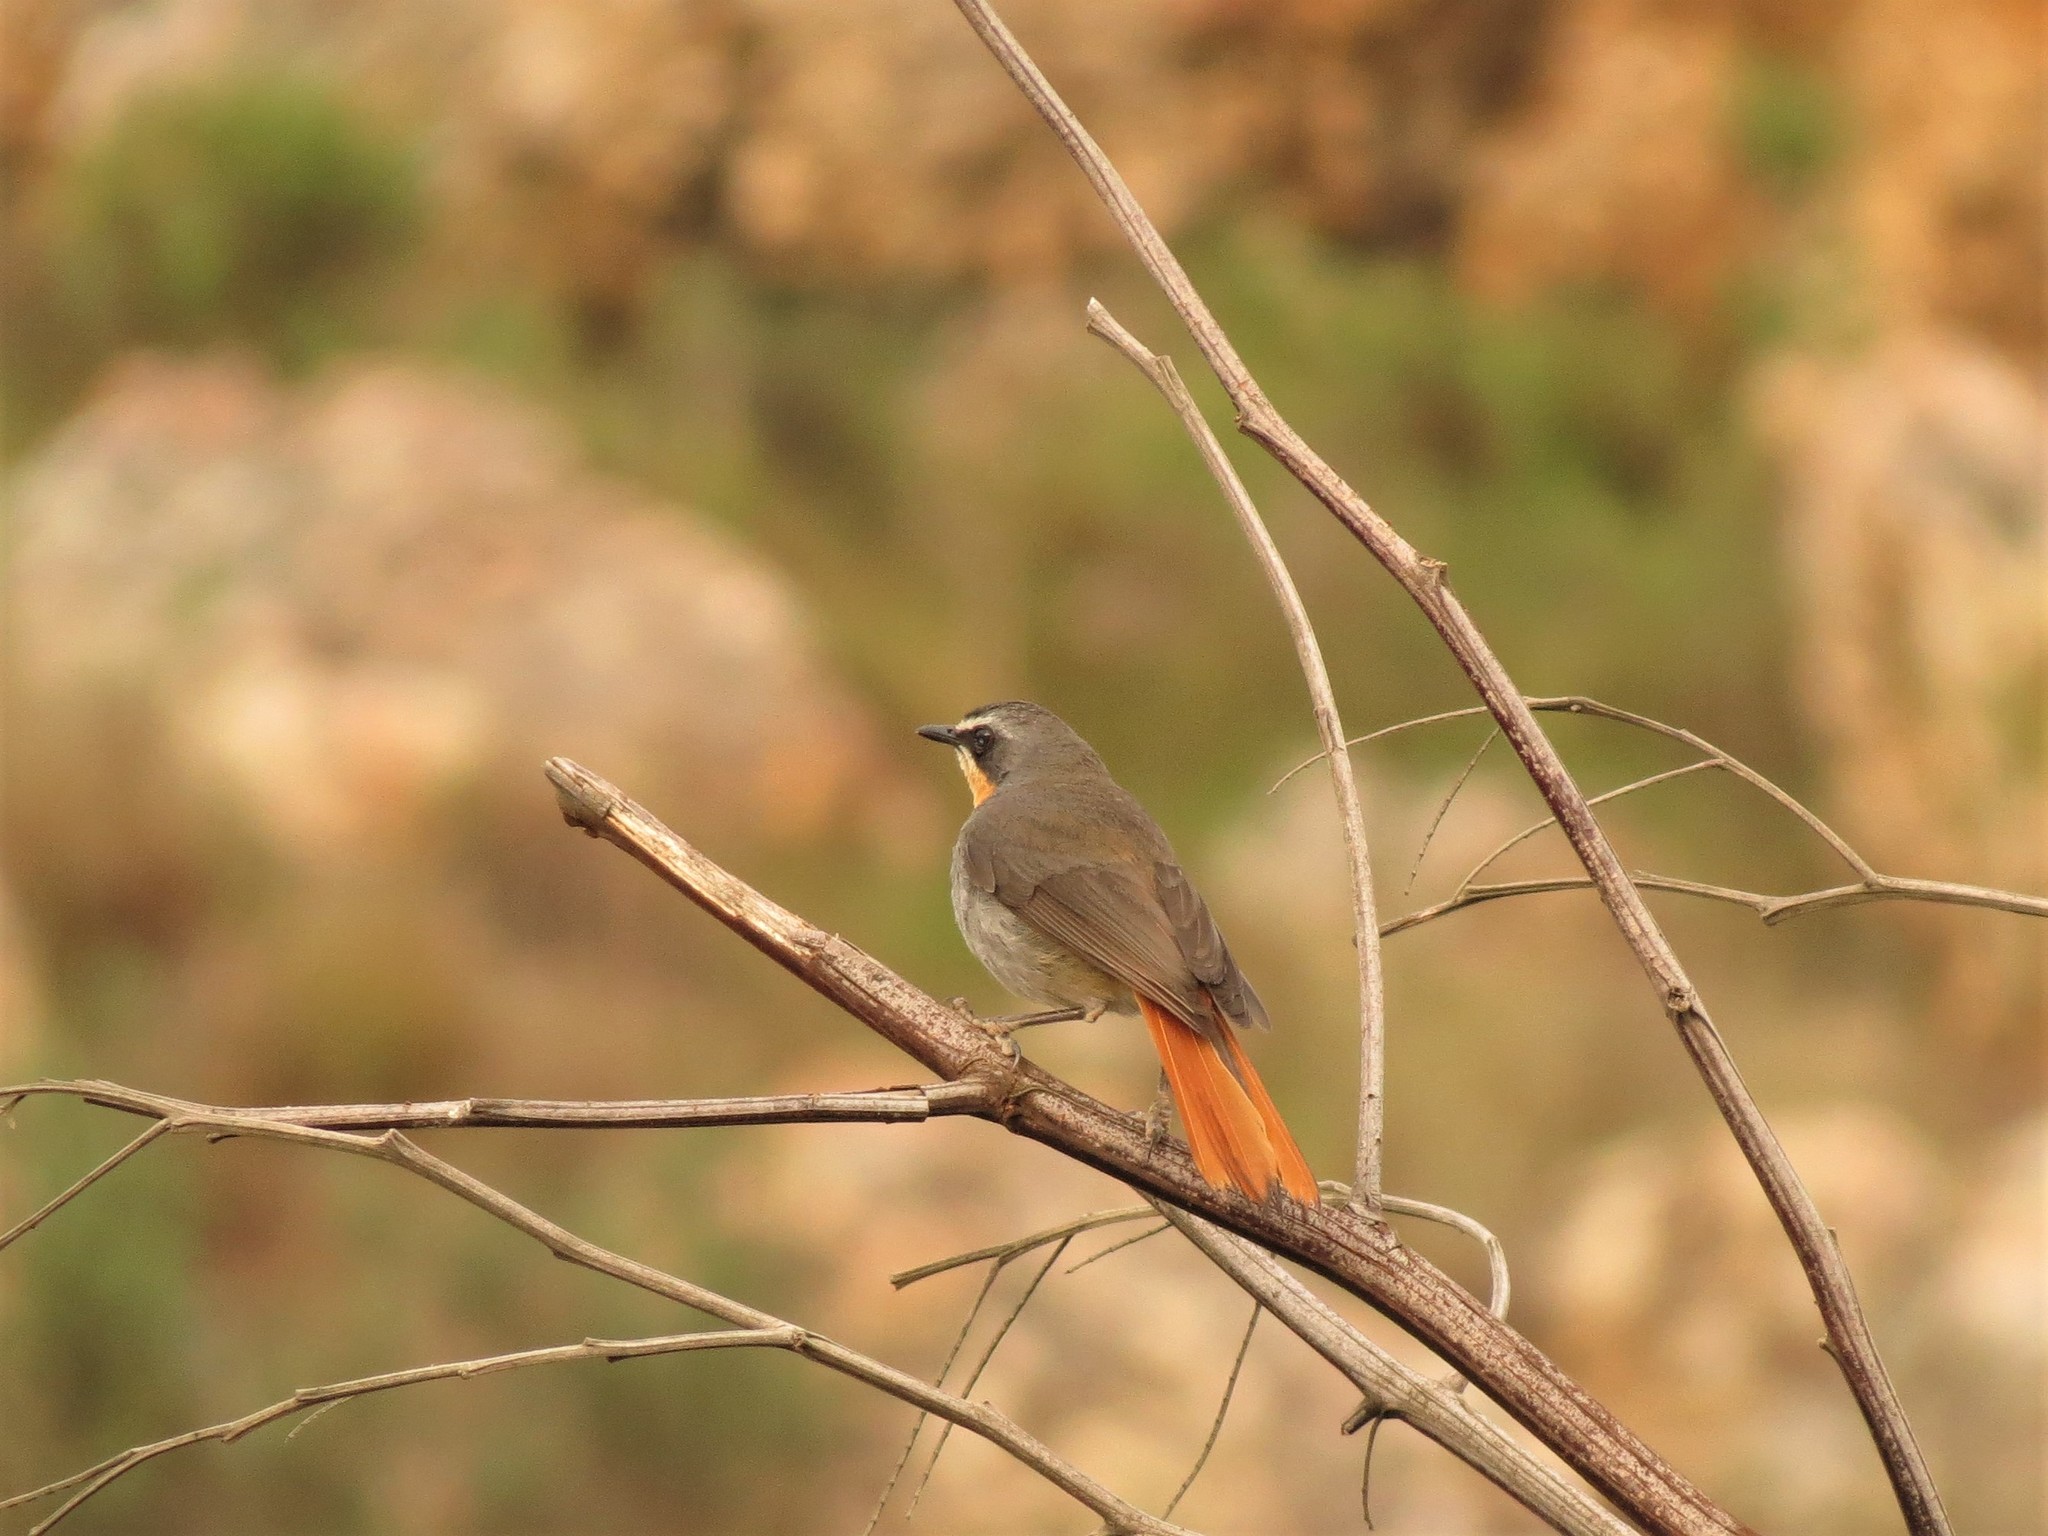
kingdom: Animalia
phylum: Chordata
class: Aves
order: Passeriformes
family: Muscicapidae
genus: Cossypha
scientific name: Cossypha caffra
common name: Cape robin-chat
